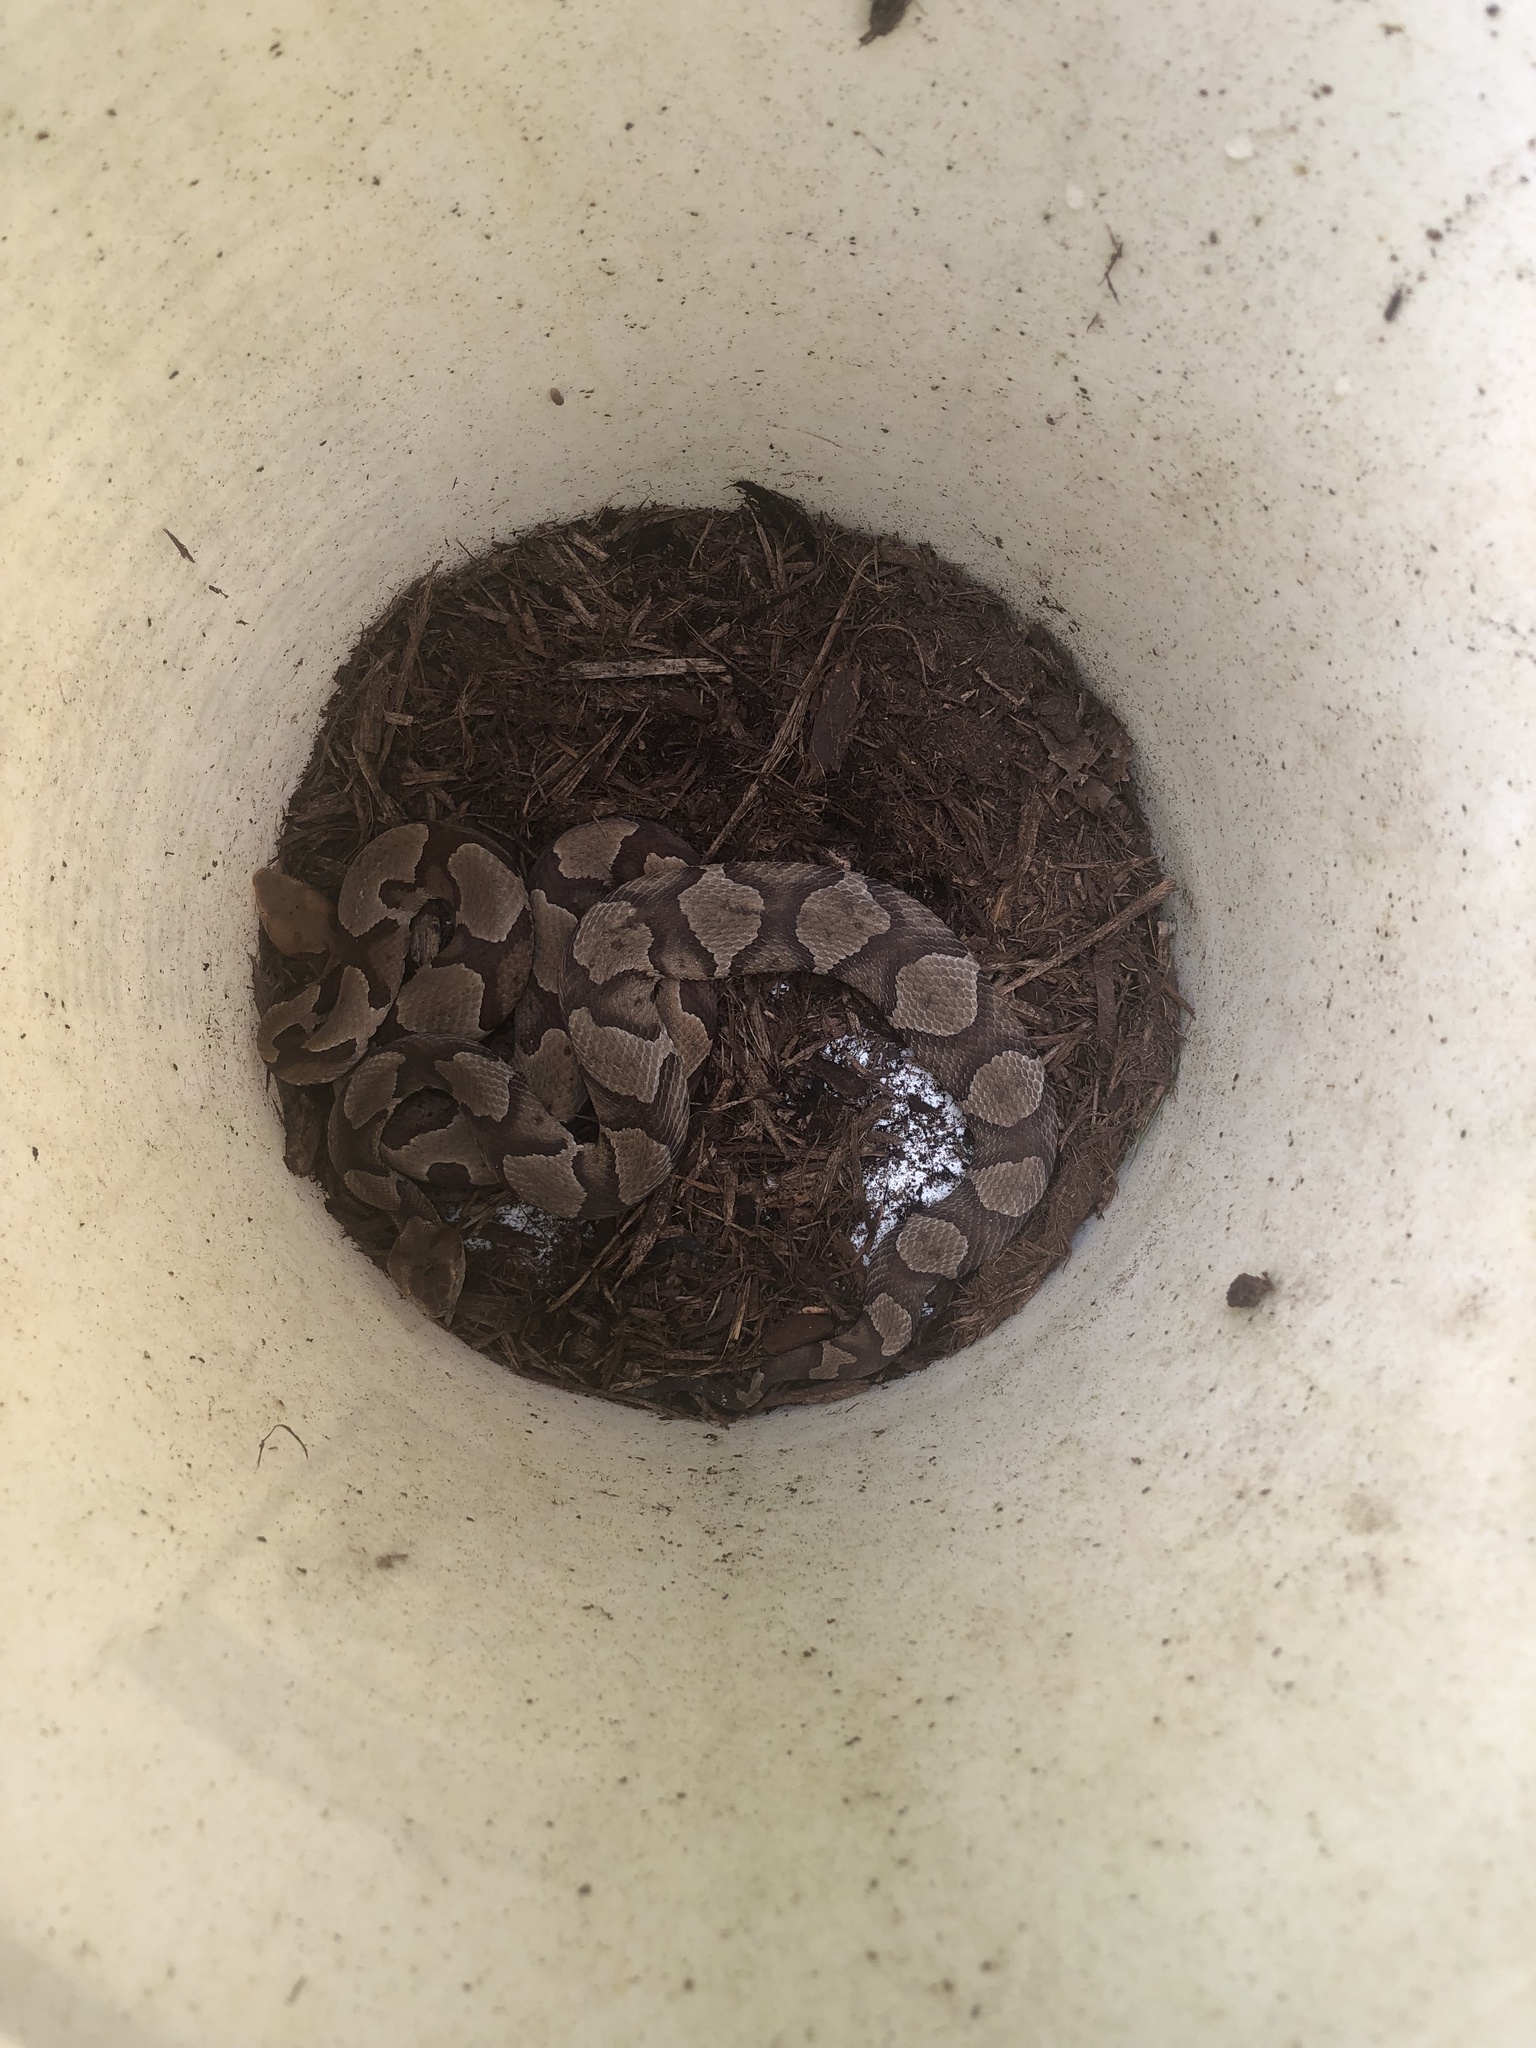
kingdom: Animalia
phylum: Chordata
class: Squamata
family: Viperidae
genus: Agkistrodon
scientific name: Agkistrodon contortrix
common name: Northern copperhead
